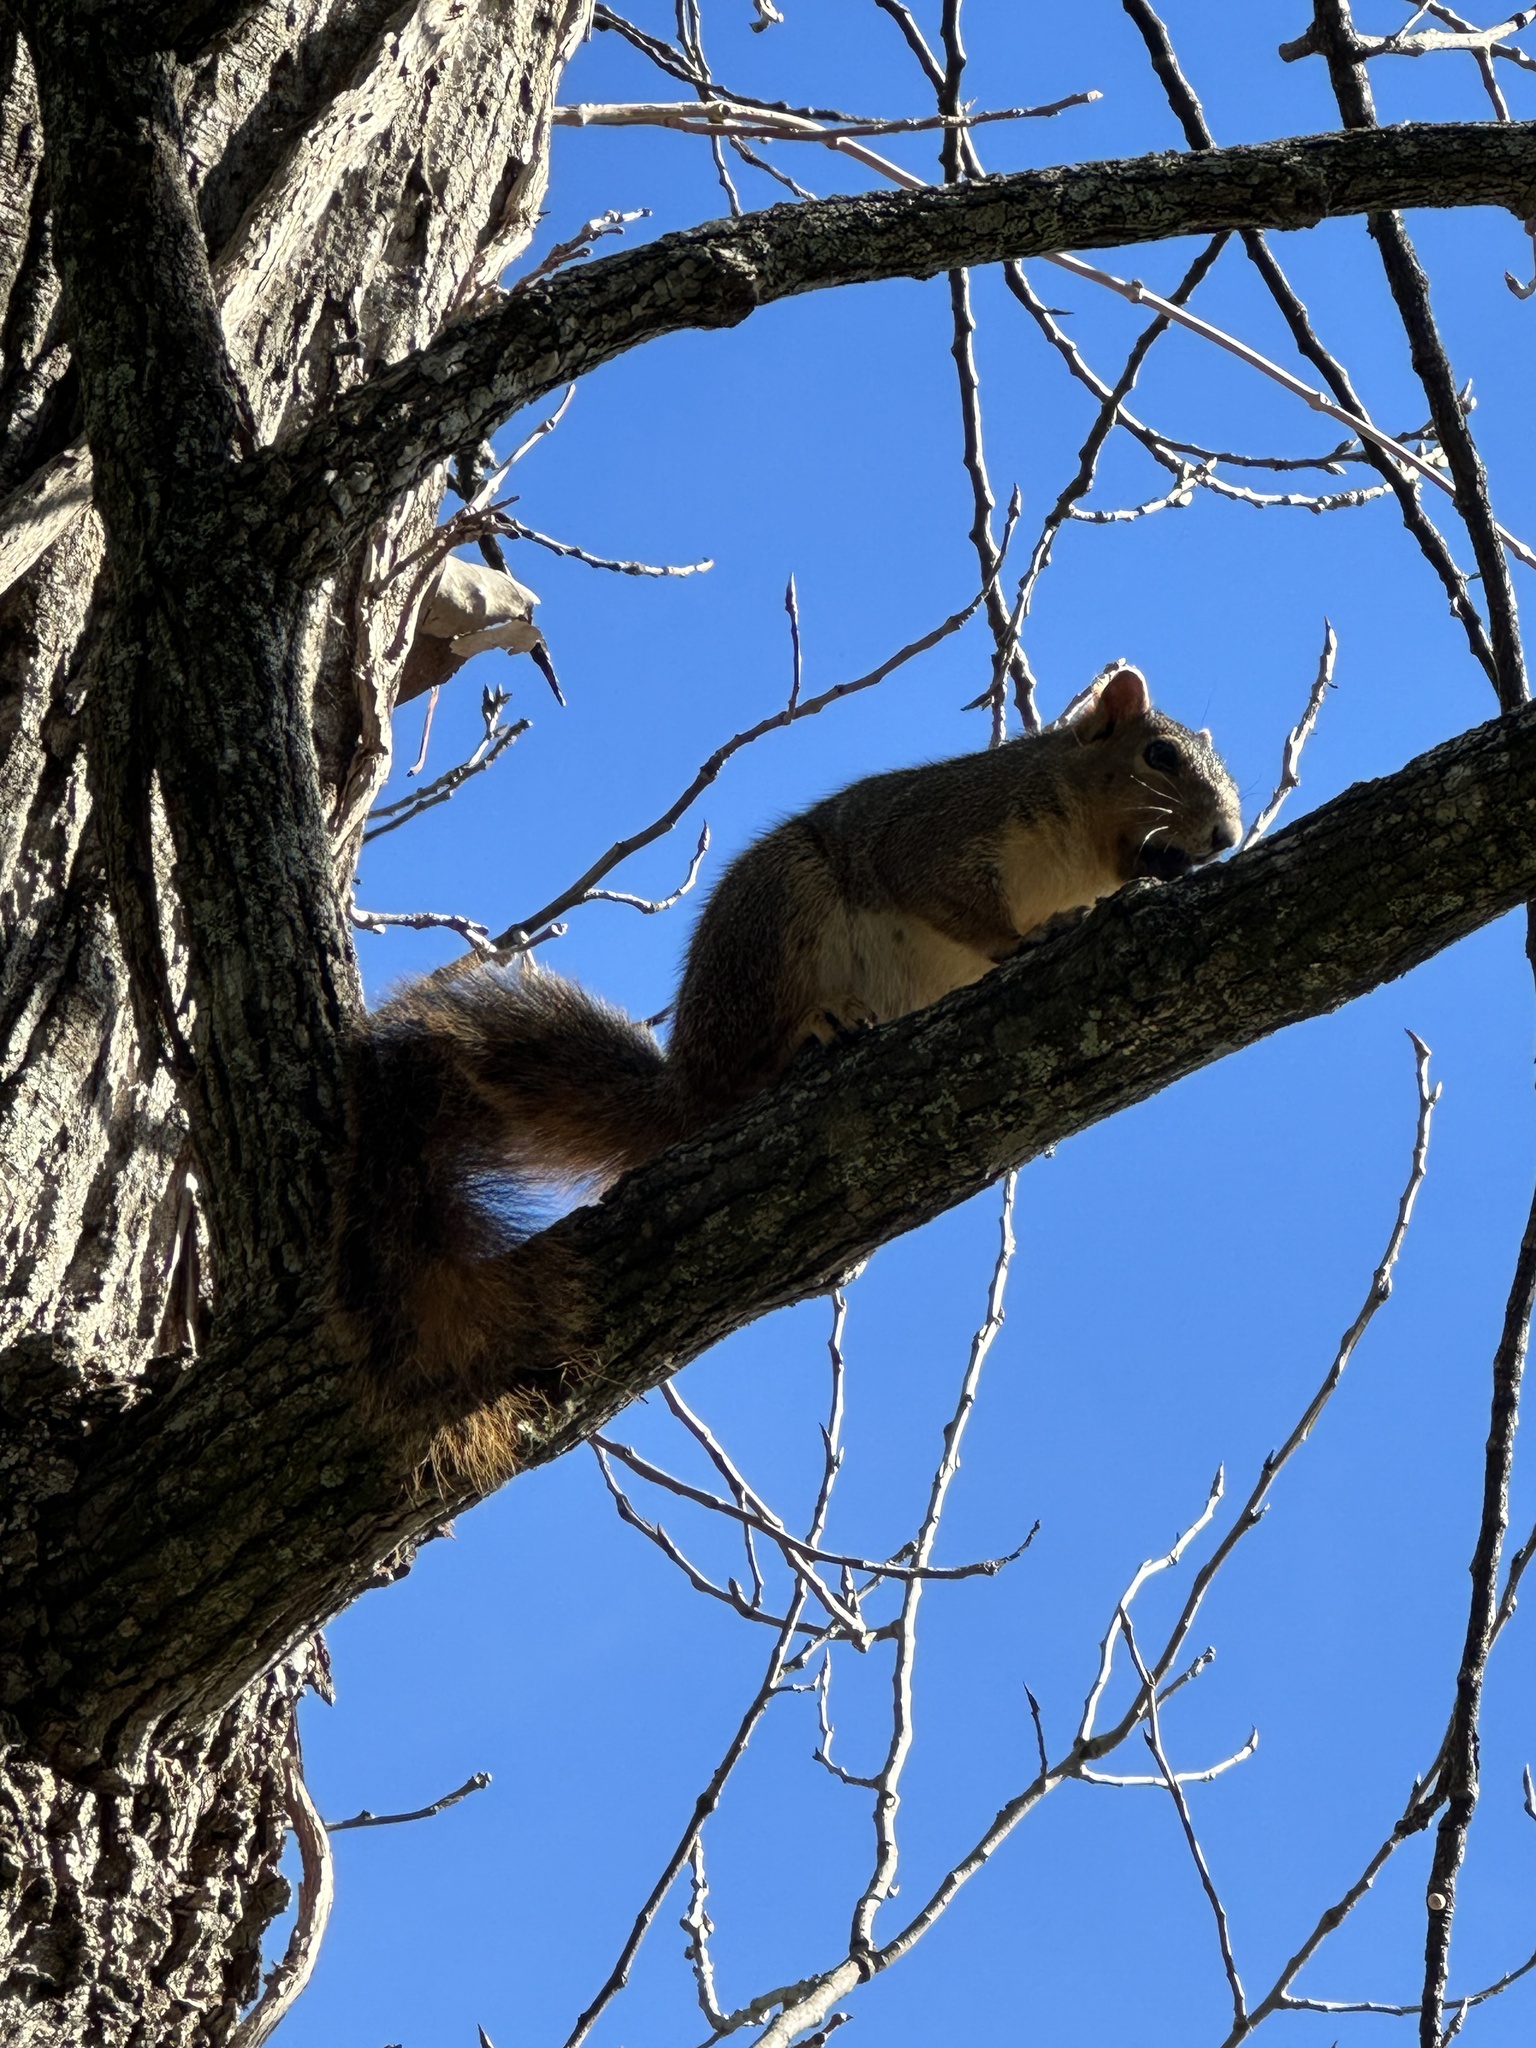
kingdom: Animalia
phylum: Chordata
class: Mammalia
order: Rodentia
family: Sciuridae
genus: Sciurus
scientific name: Sciurus niger
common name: Fox squirrel
